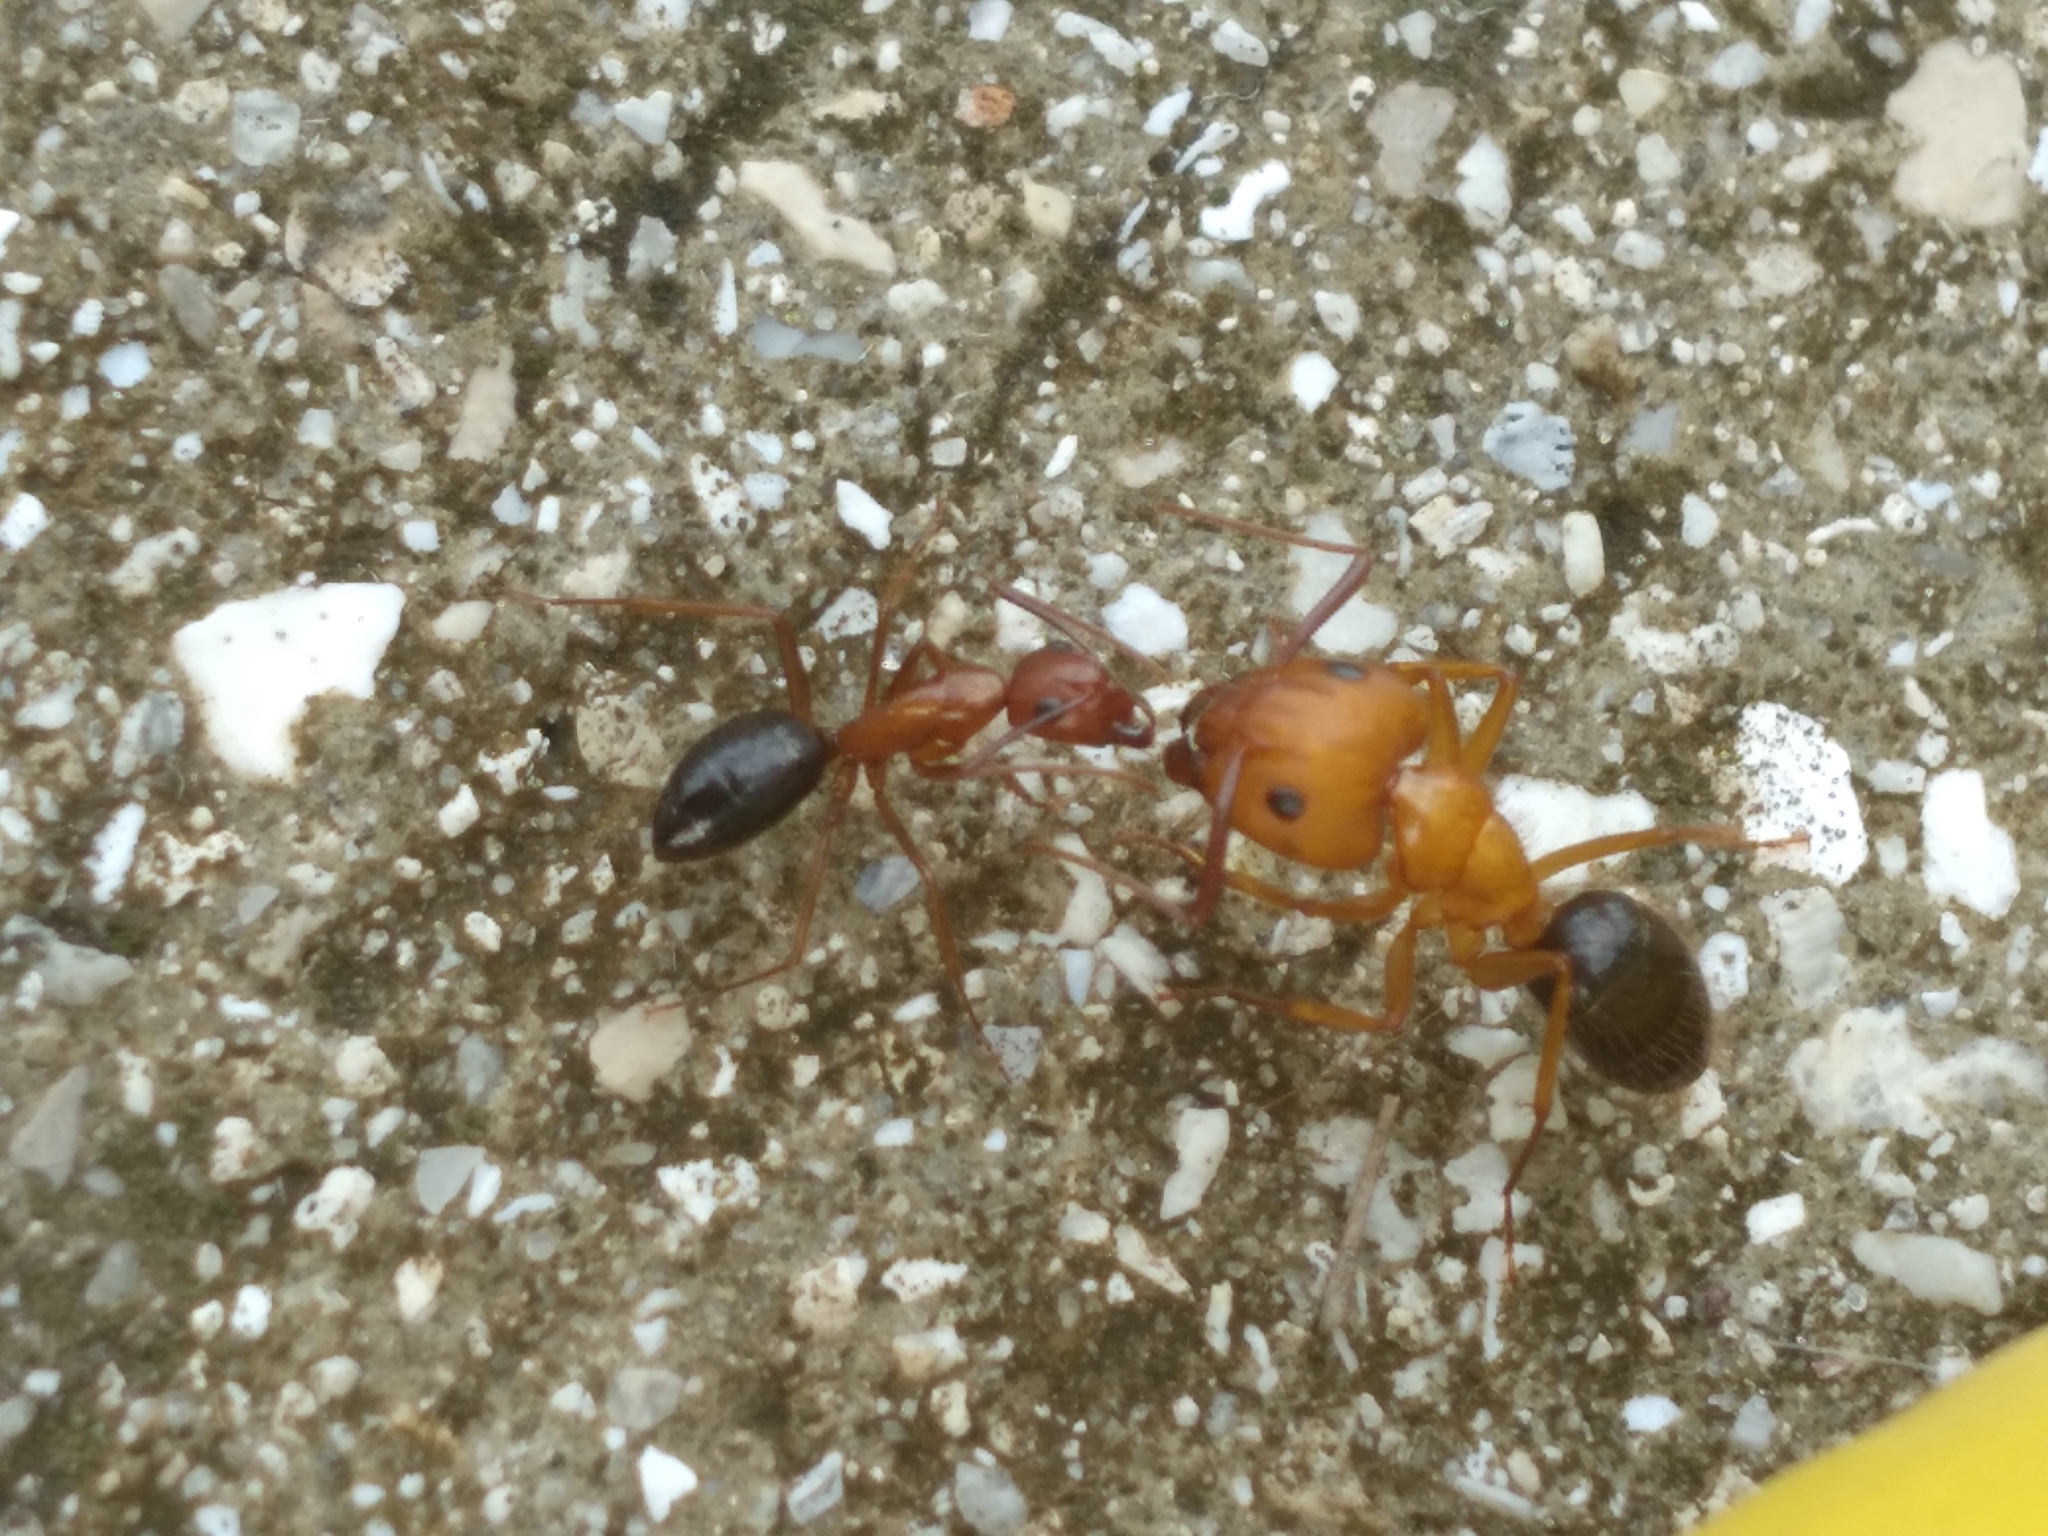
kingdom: Animalia
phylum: Arthropoda
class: Insecta
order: Hymenoptera
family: Formicidae
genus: Camponotus
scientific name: Camponotus floridanus
